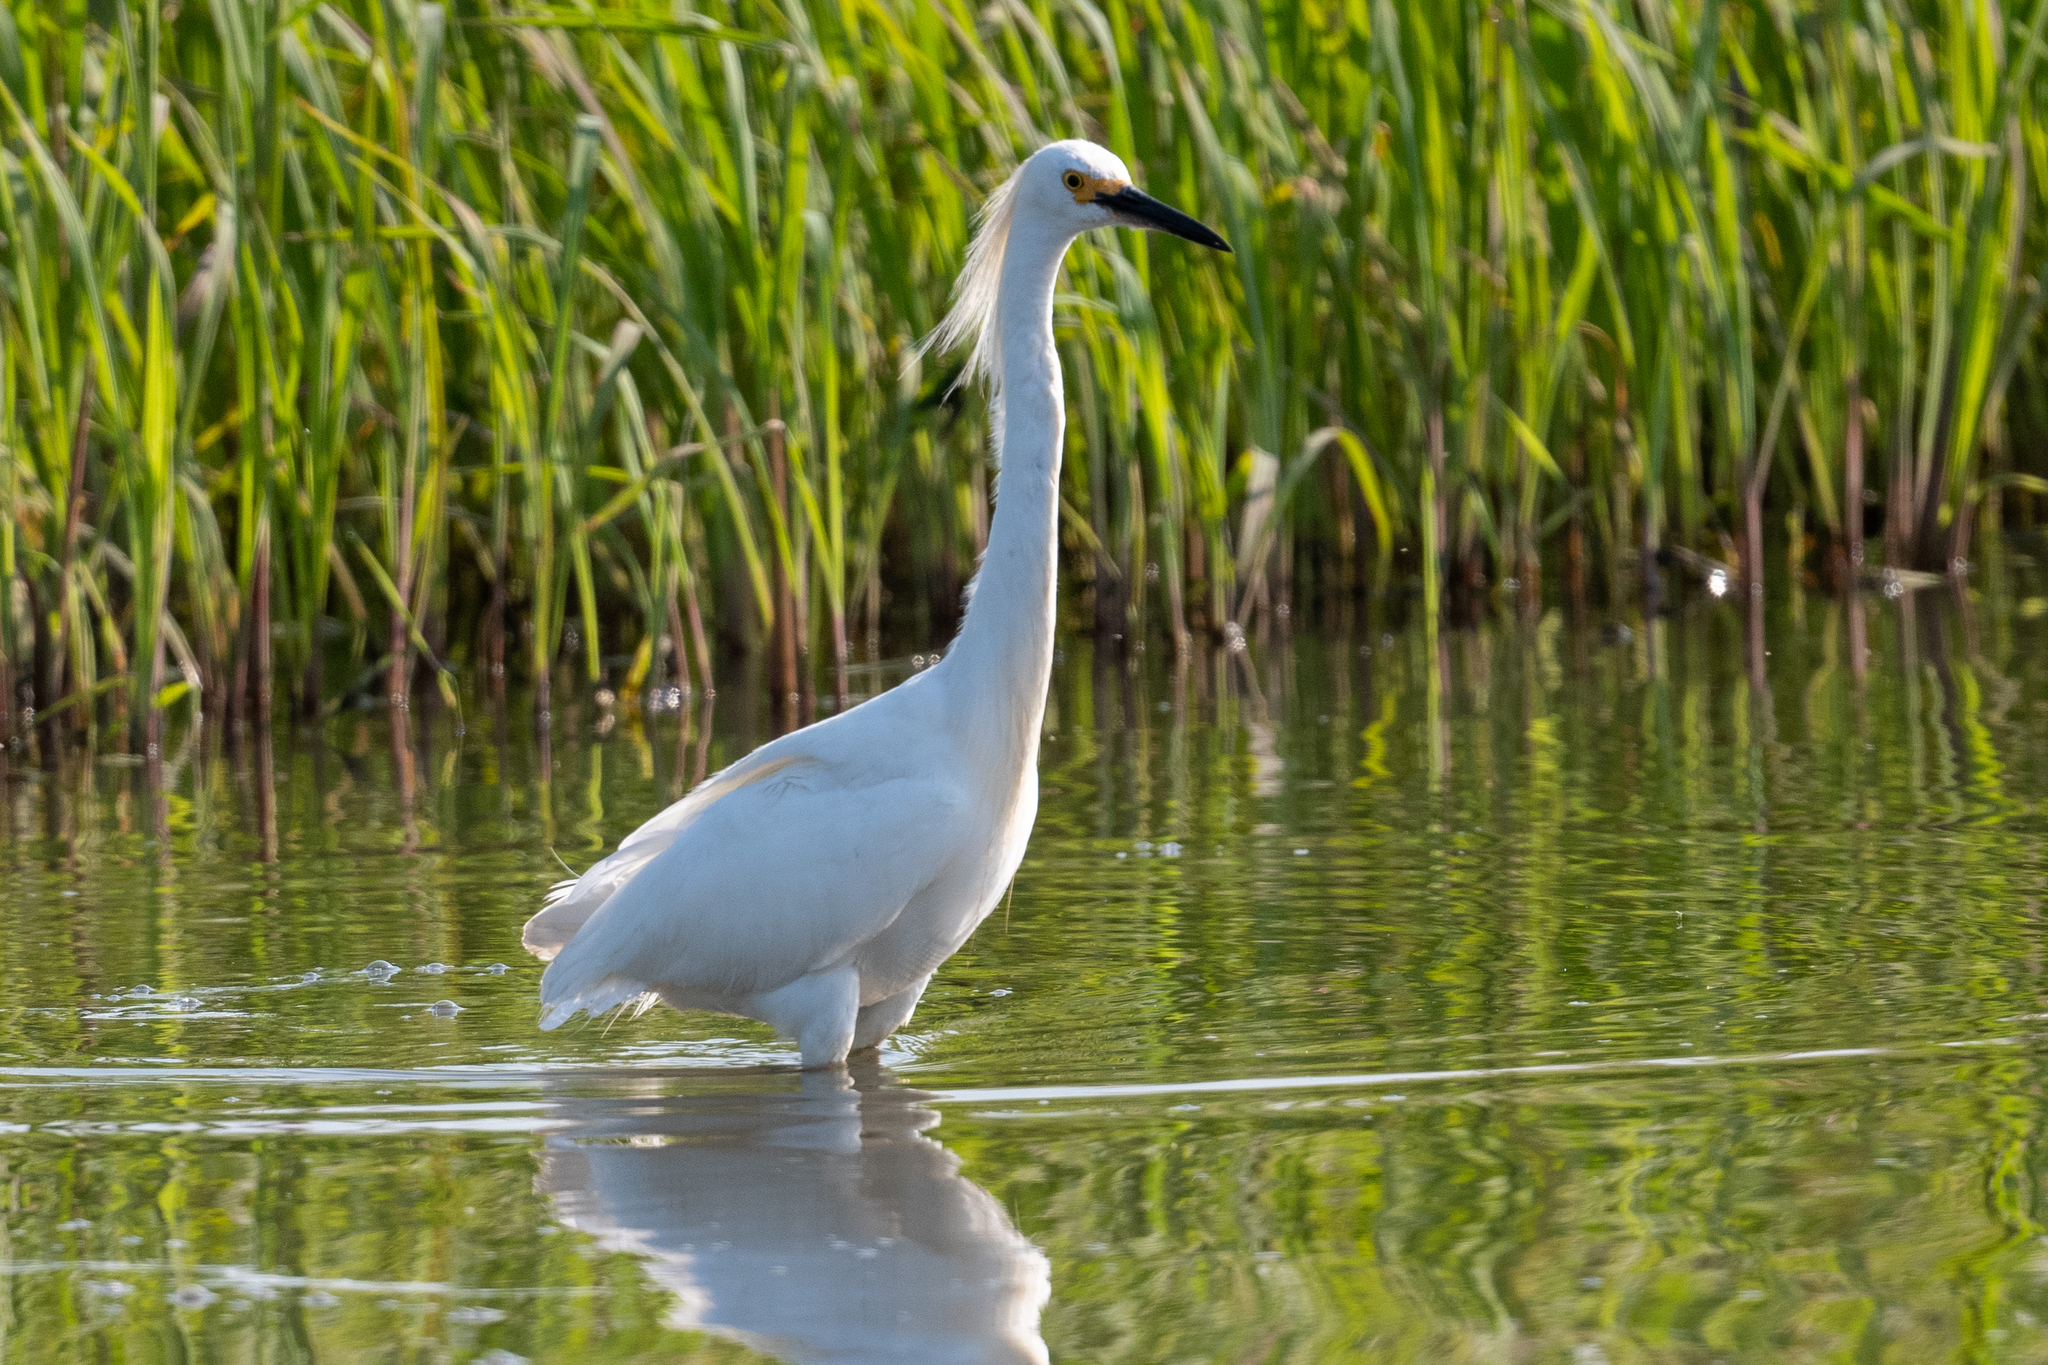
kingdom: Animalia
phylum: Chordata
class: Aves
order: Pelecaniformes
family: Ardeidae
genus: Egretta
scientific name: Egretta thula
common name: Snowy egret
